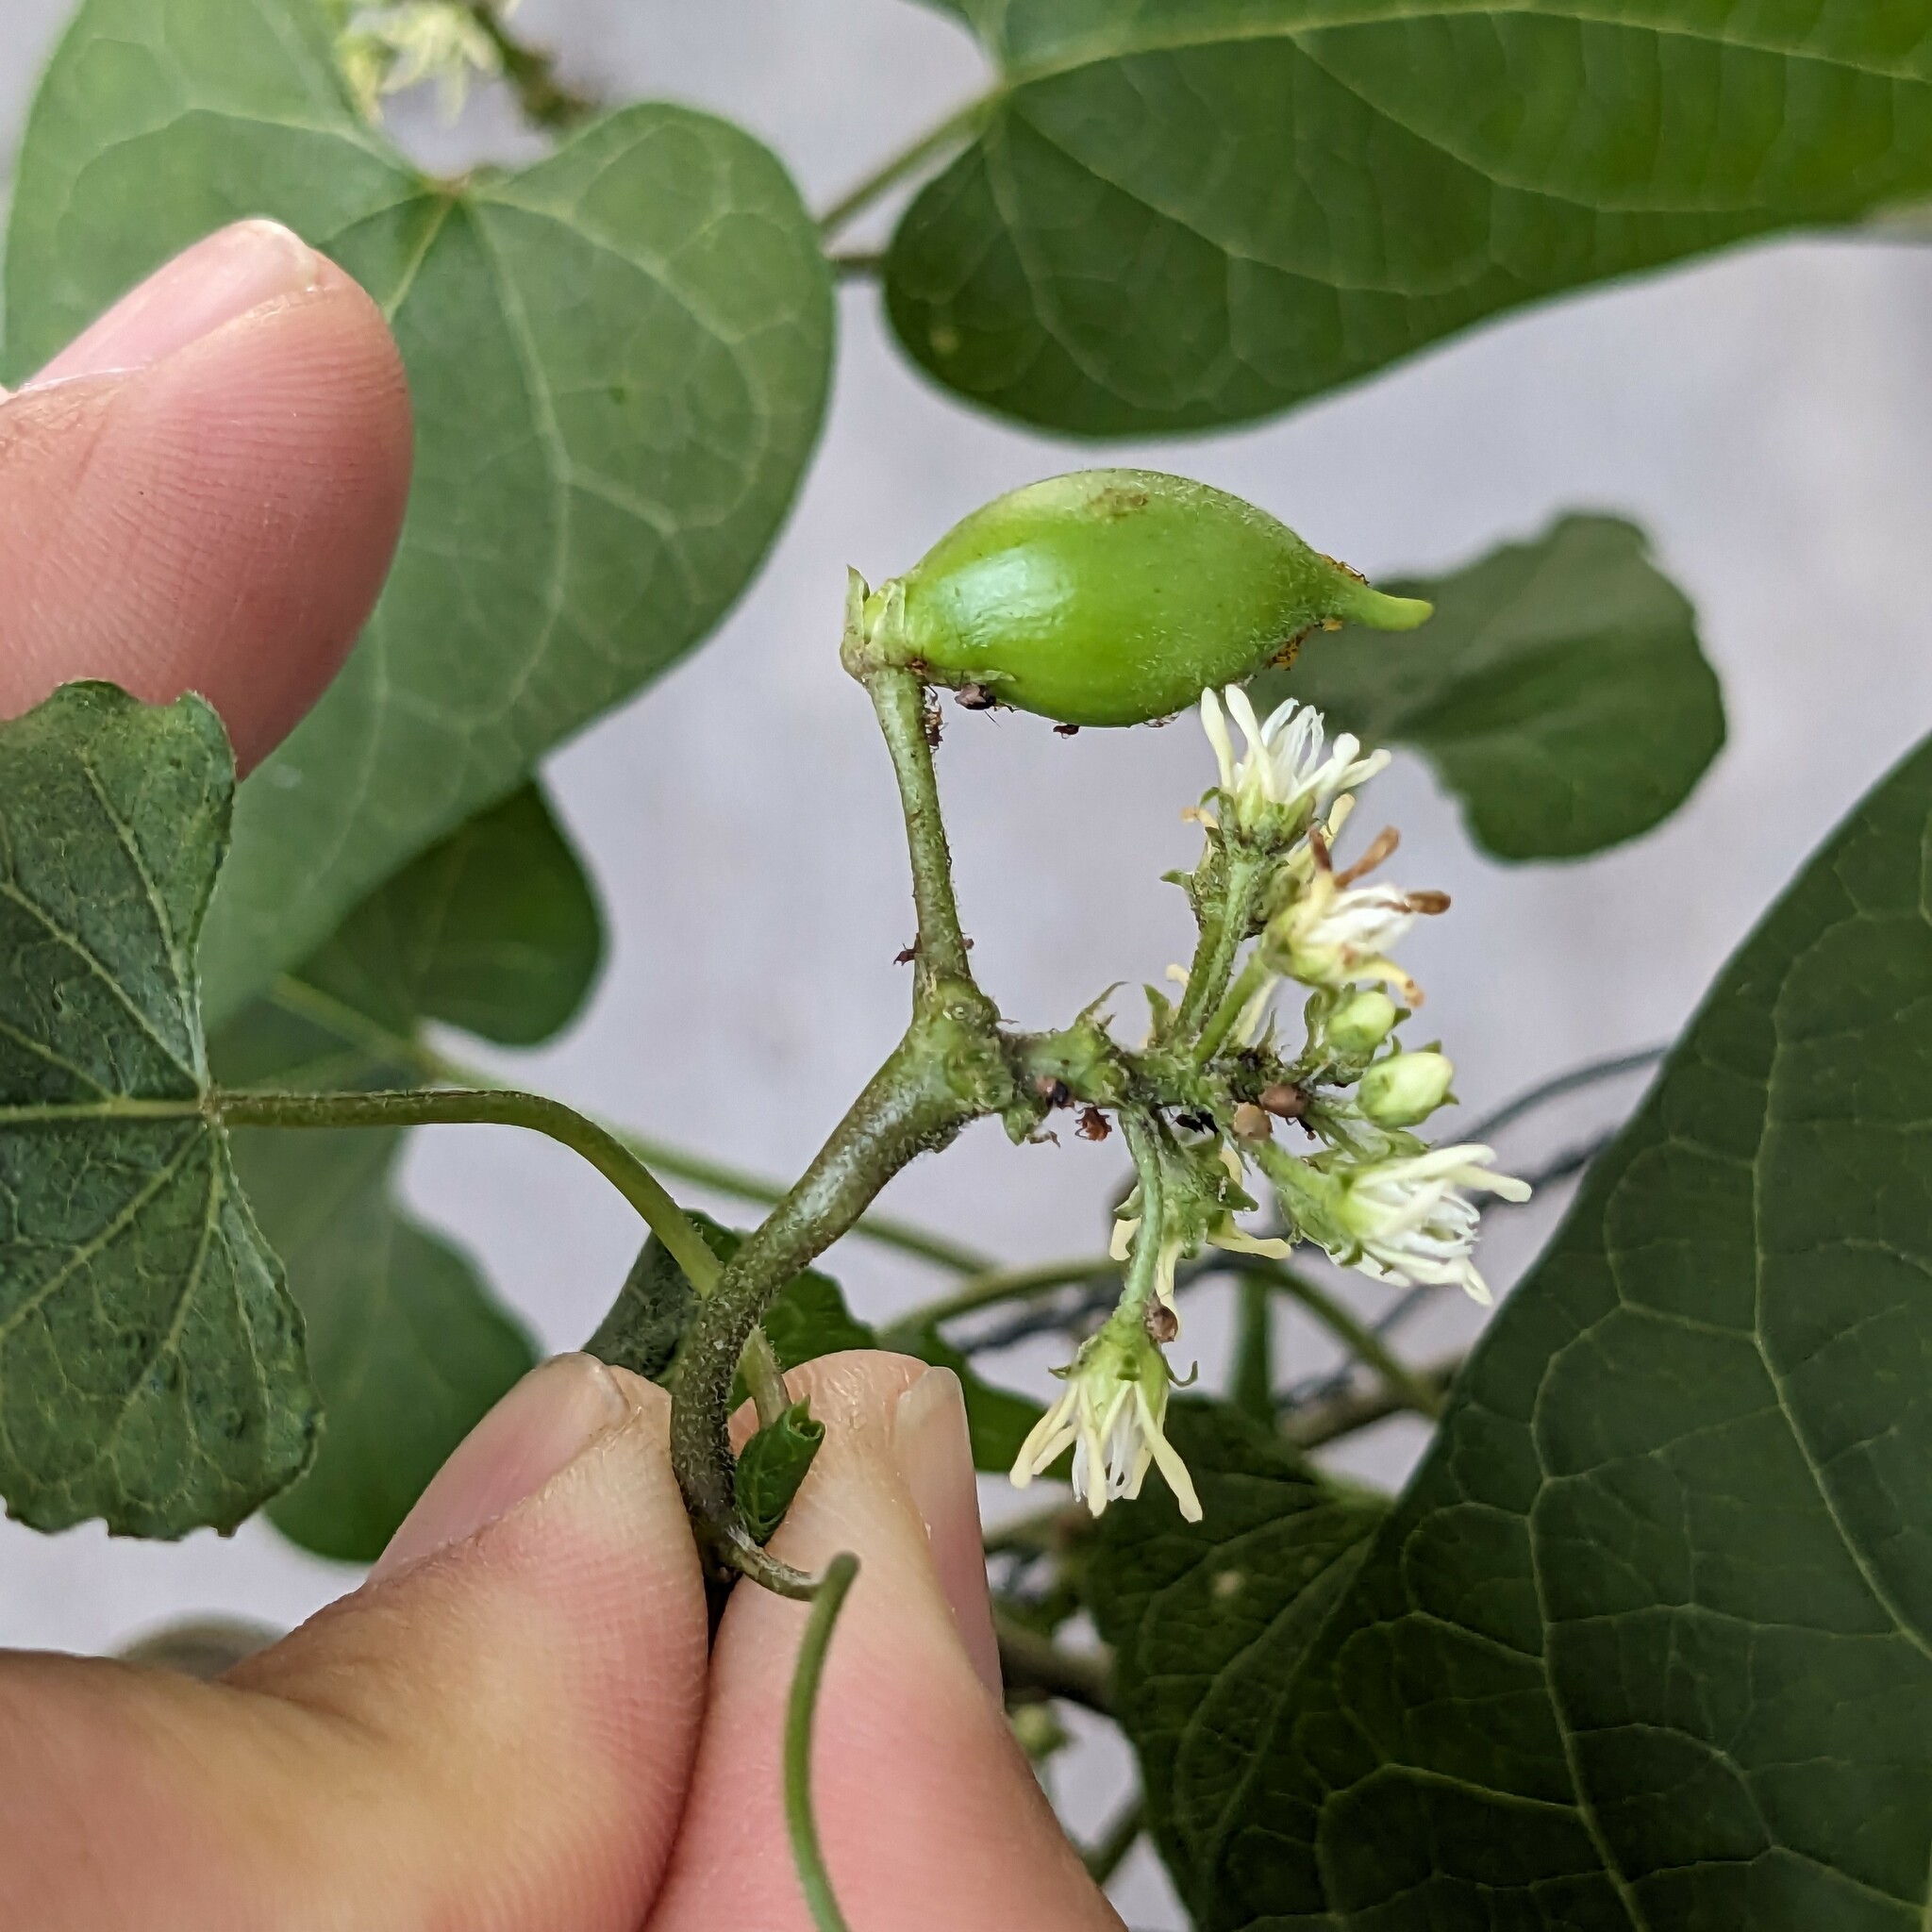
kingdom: Plantae
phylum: Tracheophyta
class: Magnoliopsida
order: Gentianales
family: Apocynaceae
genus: Cynanchum
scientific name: Cynanchum laeve
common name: Sandvine
